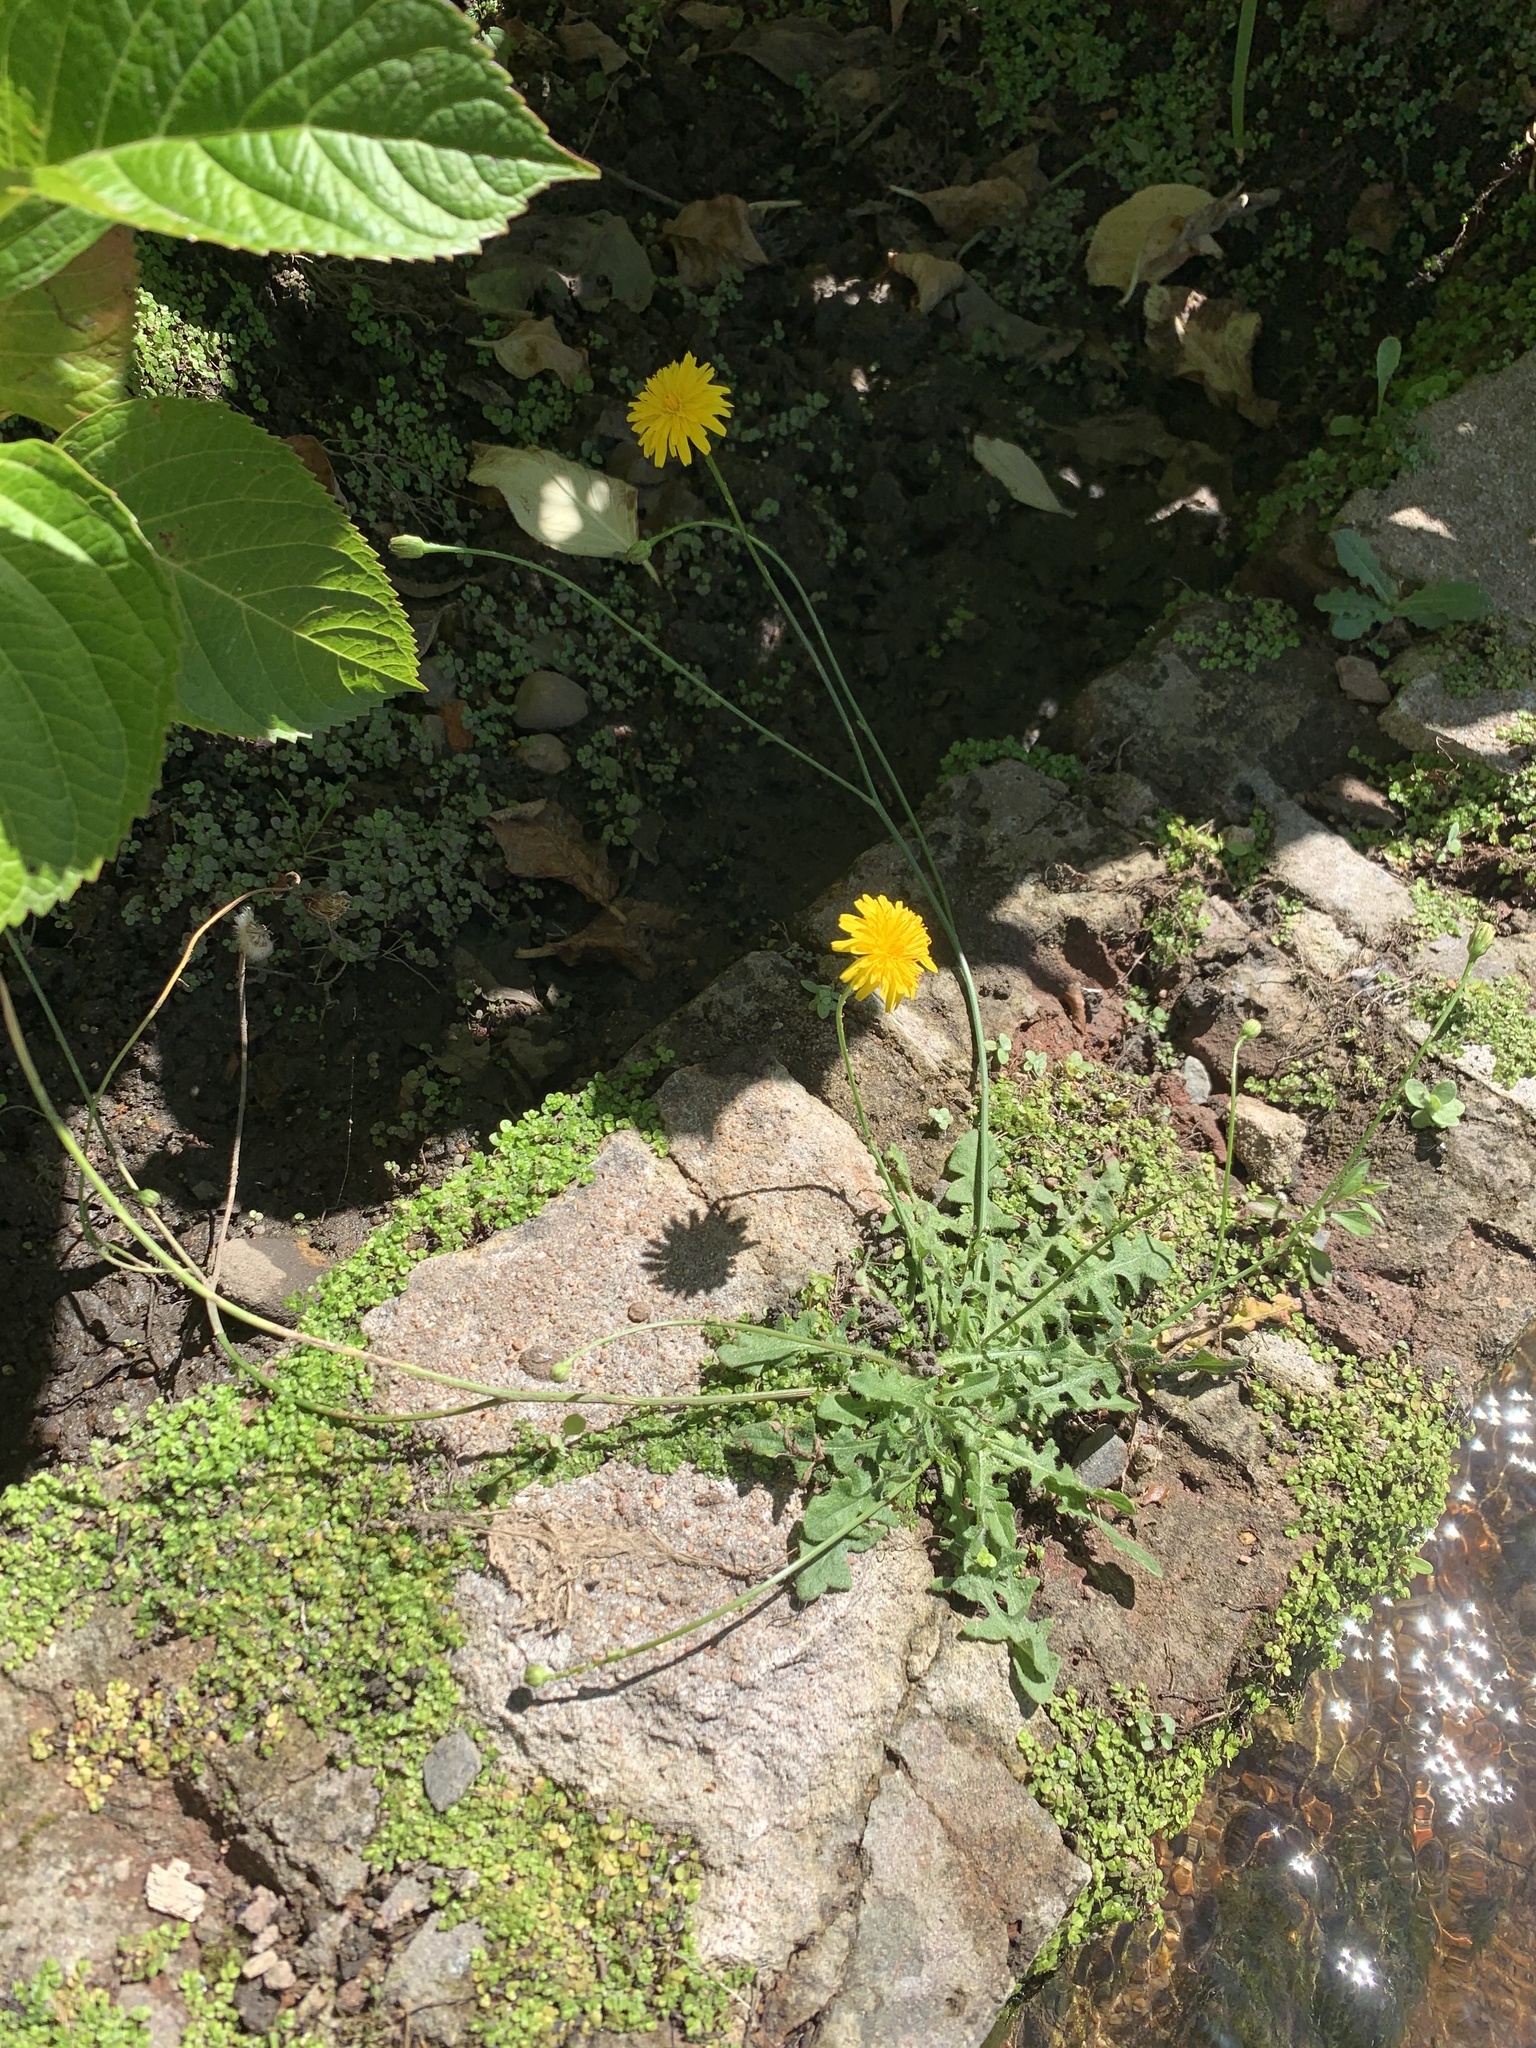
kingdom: Plantae
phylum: Tracheophyta
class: Magnoliopsida
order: Asterales
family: Asteraceae
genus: Hypochaeris
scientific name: Hypochaeris radicata
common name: Flatweed
